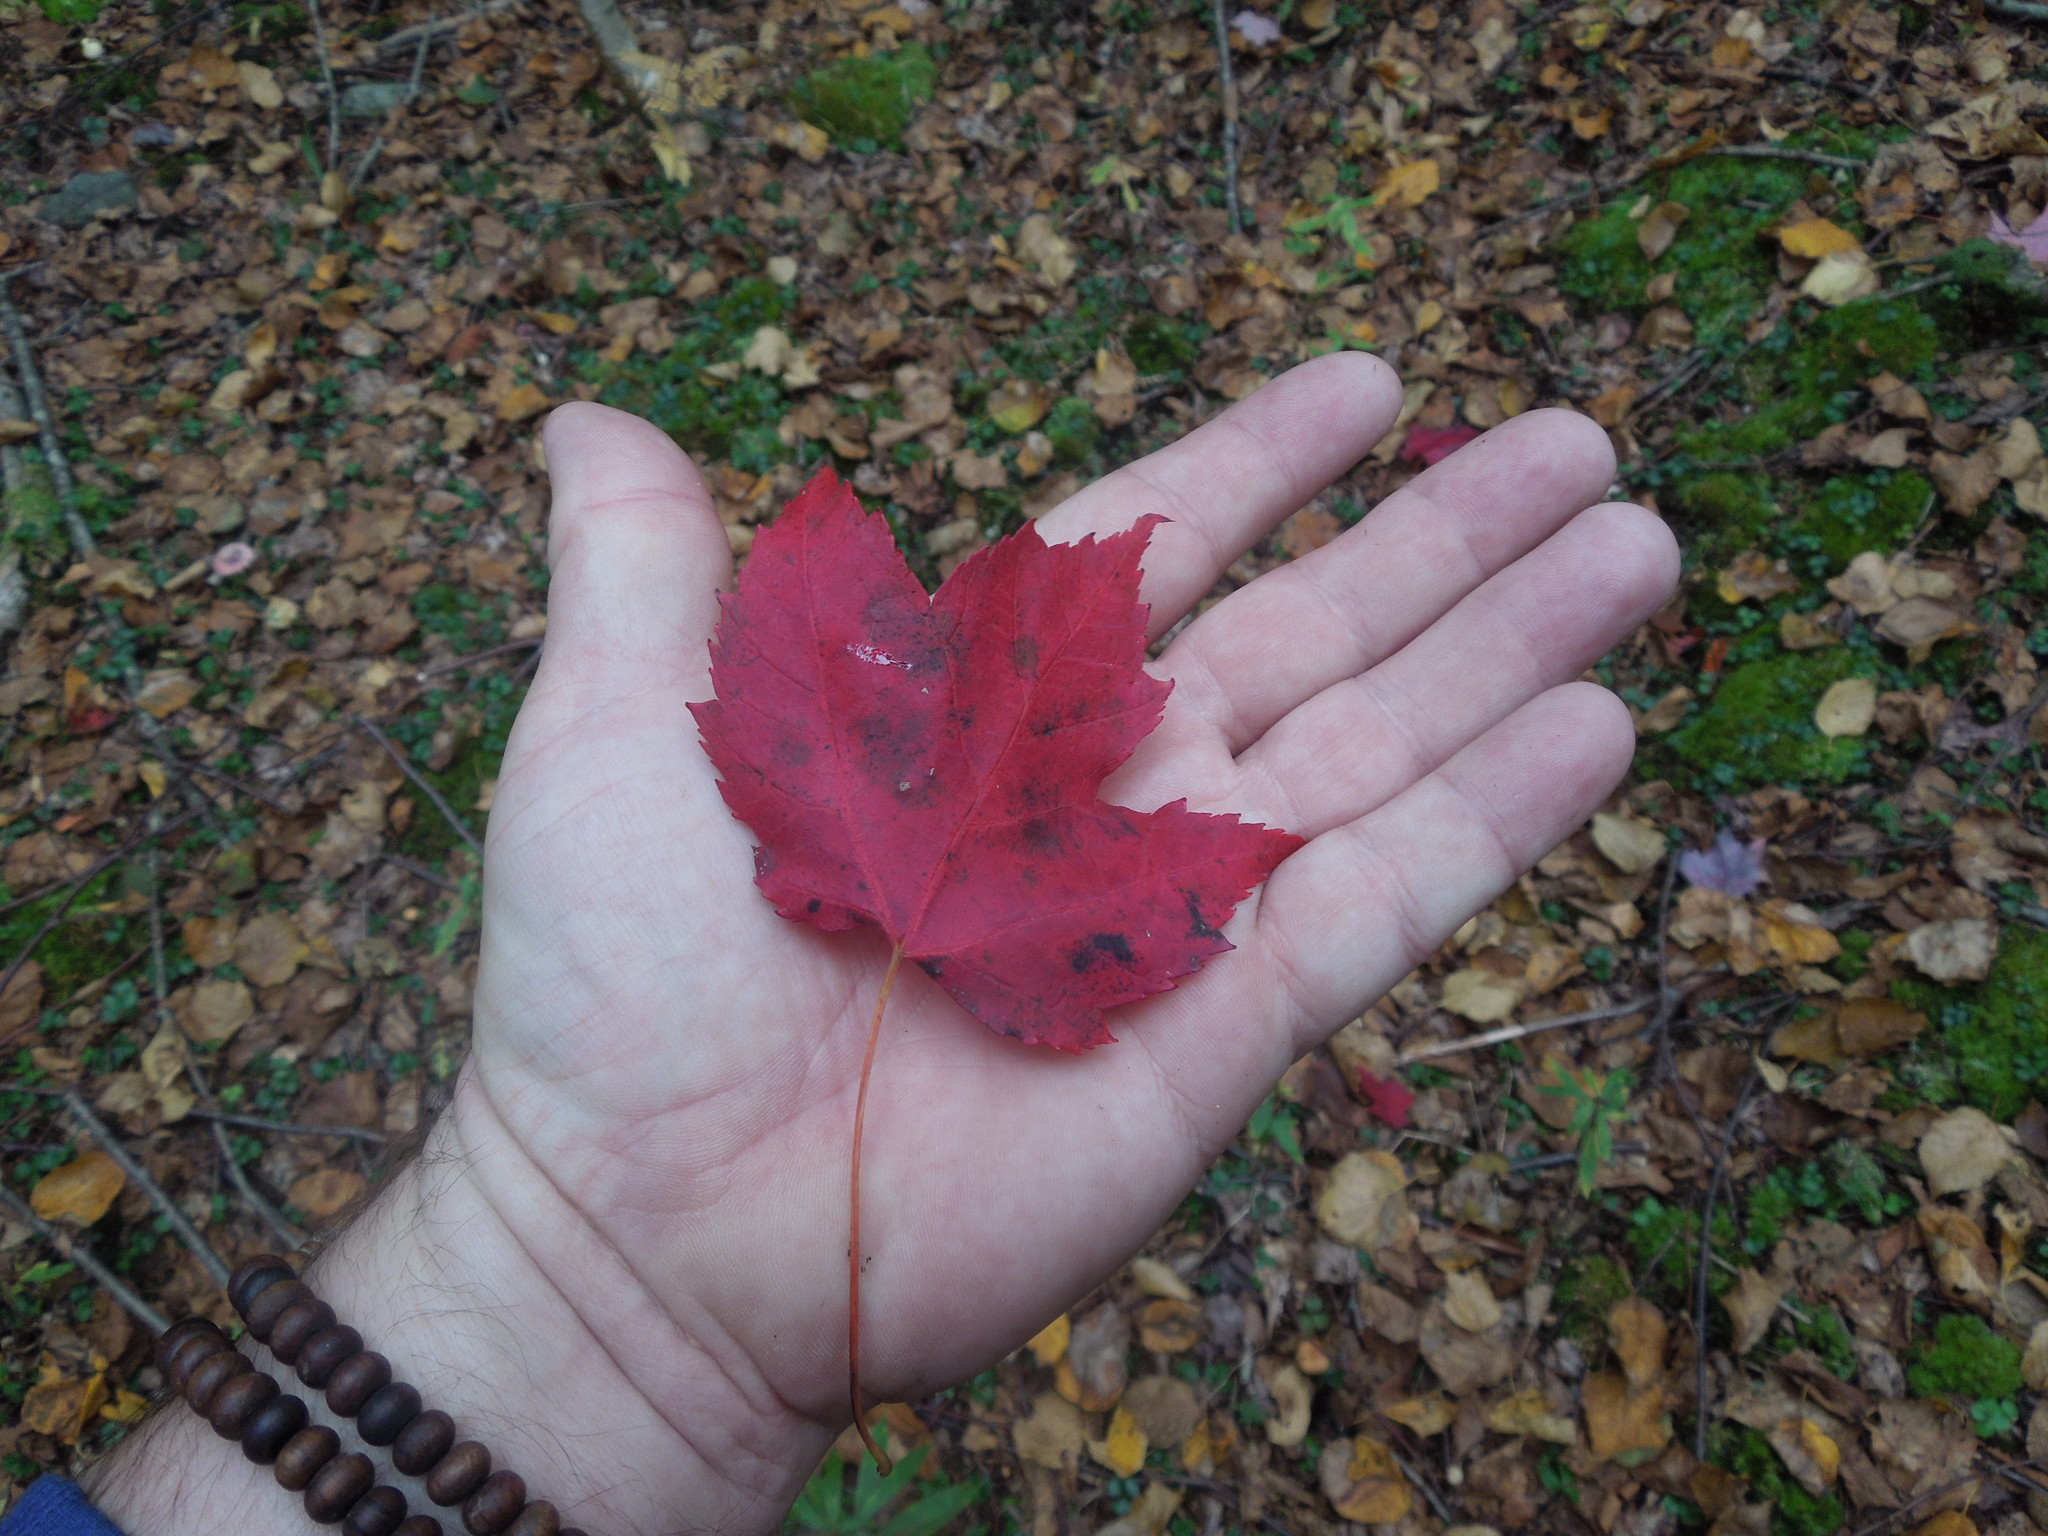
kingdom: Plantae
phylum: Tracheophyta
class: Magnoliopsida
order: Sapindales
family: Sapindaceae
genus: Acer
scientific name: Acer rubrum
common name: Red maple
